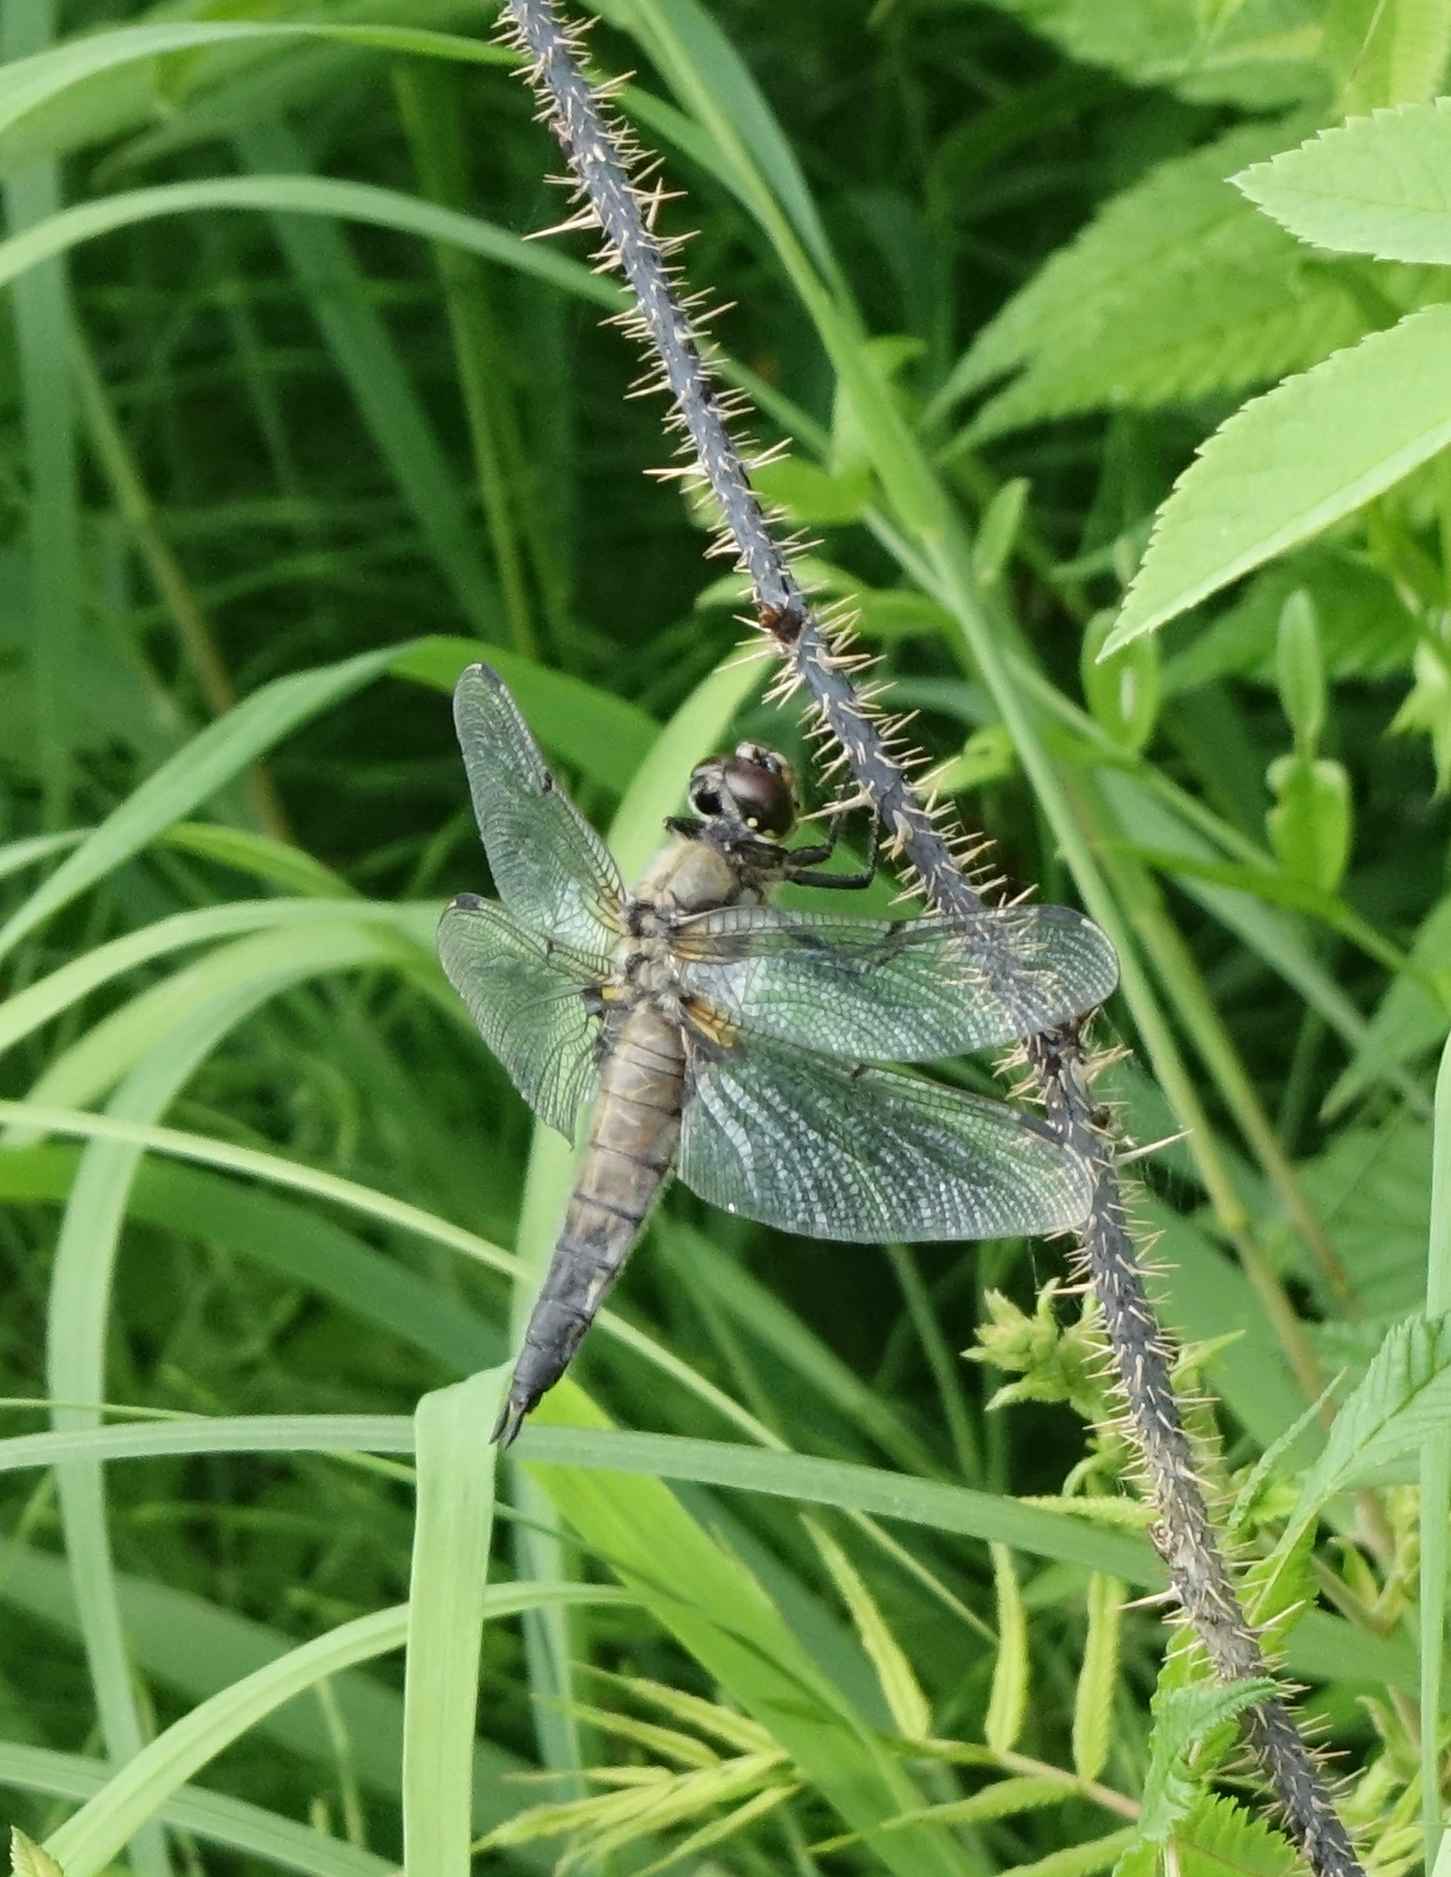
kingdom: Animalia
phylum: Arthropoda
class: Insecta
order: Odonata
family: Libellulidae
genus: Libellula
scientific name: Libellula quadrimaculata
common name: Four-spotted chaser
